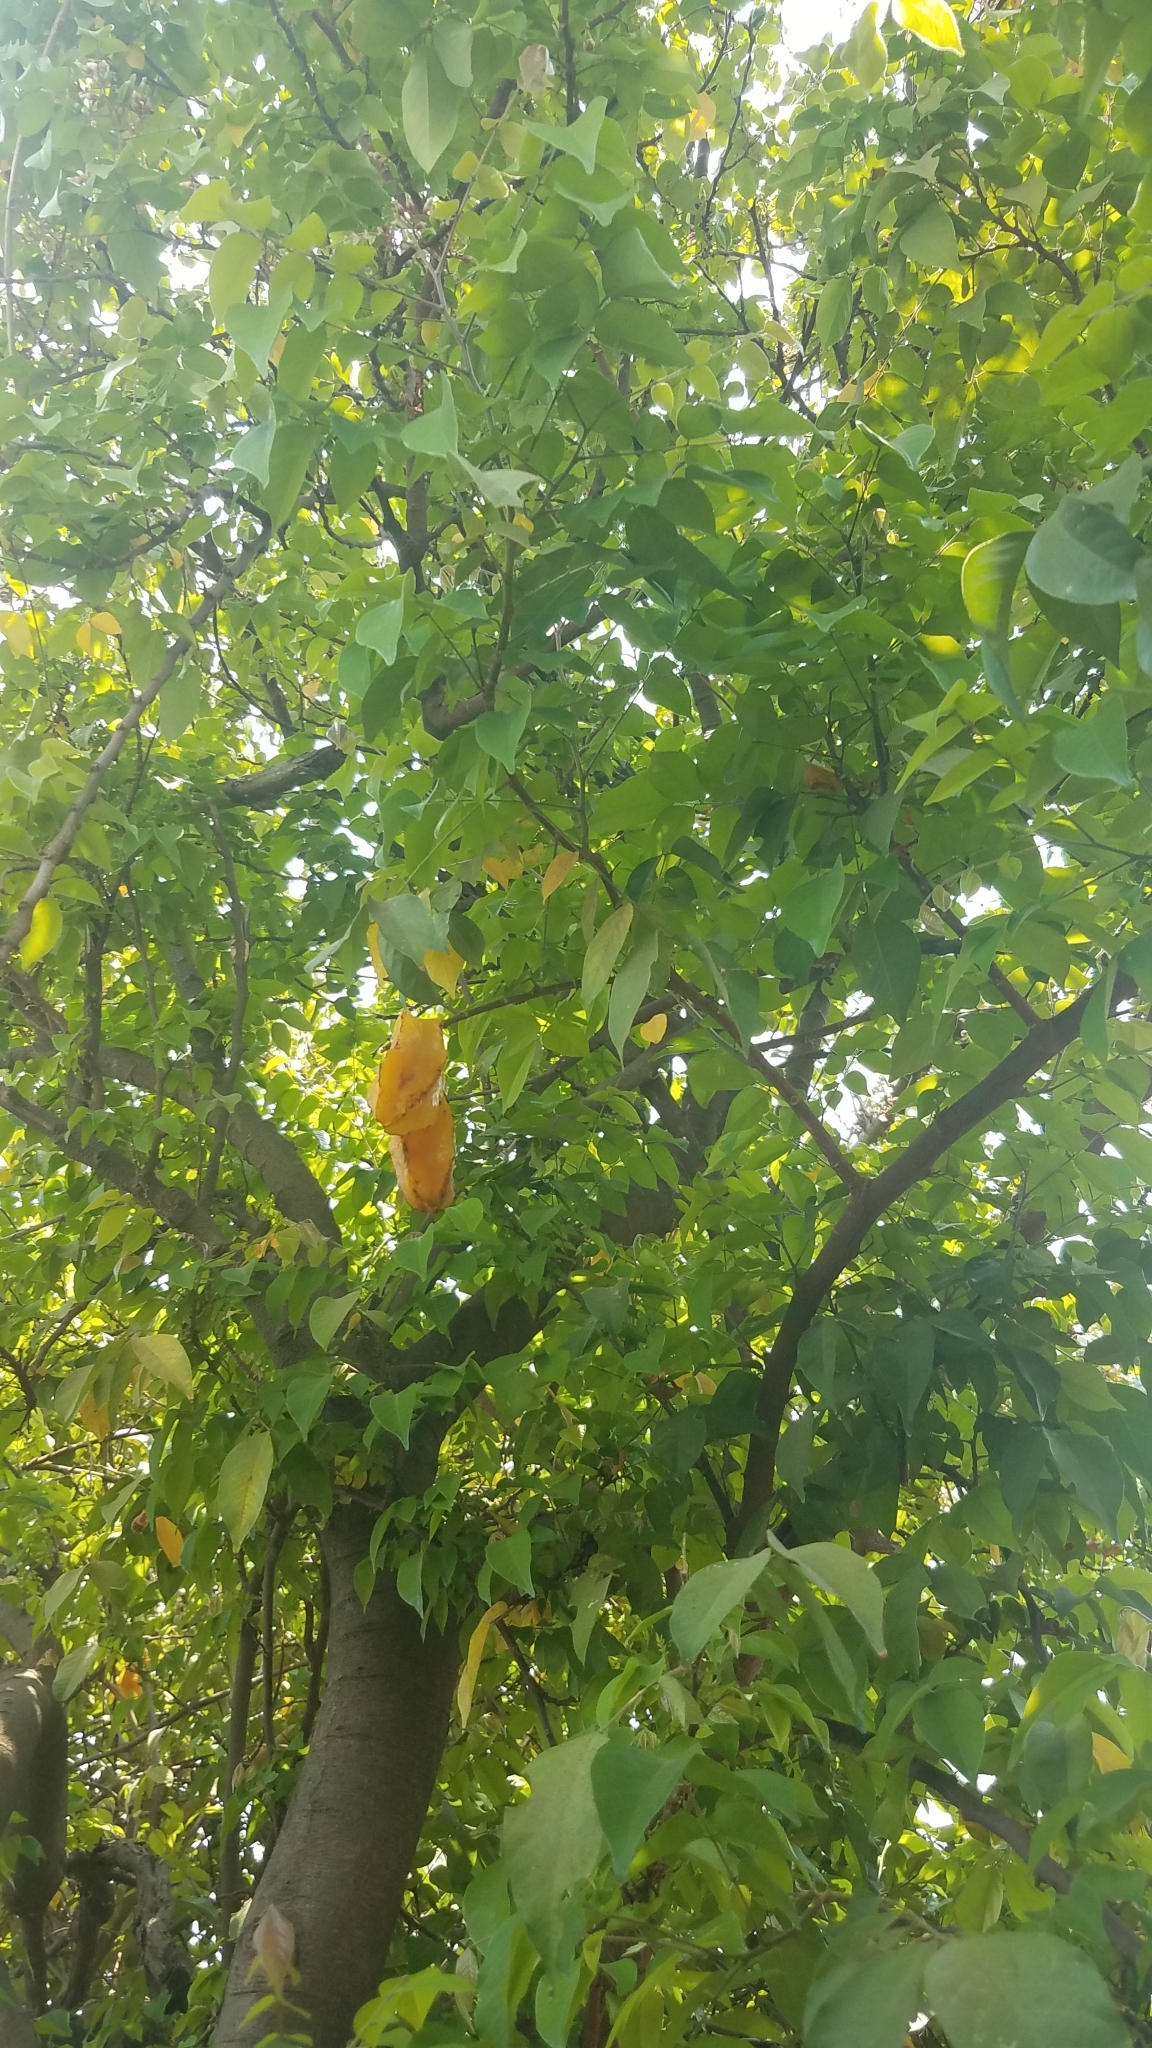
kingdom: Plantae
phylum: Tracheophyta
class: Magnoliopsida
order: Oxalidales
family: Oxalidaceae
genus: Averrhoa
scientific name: Averrhoa carambola
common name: Blimbing
